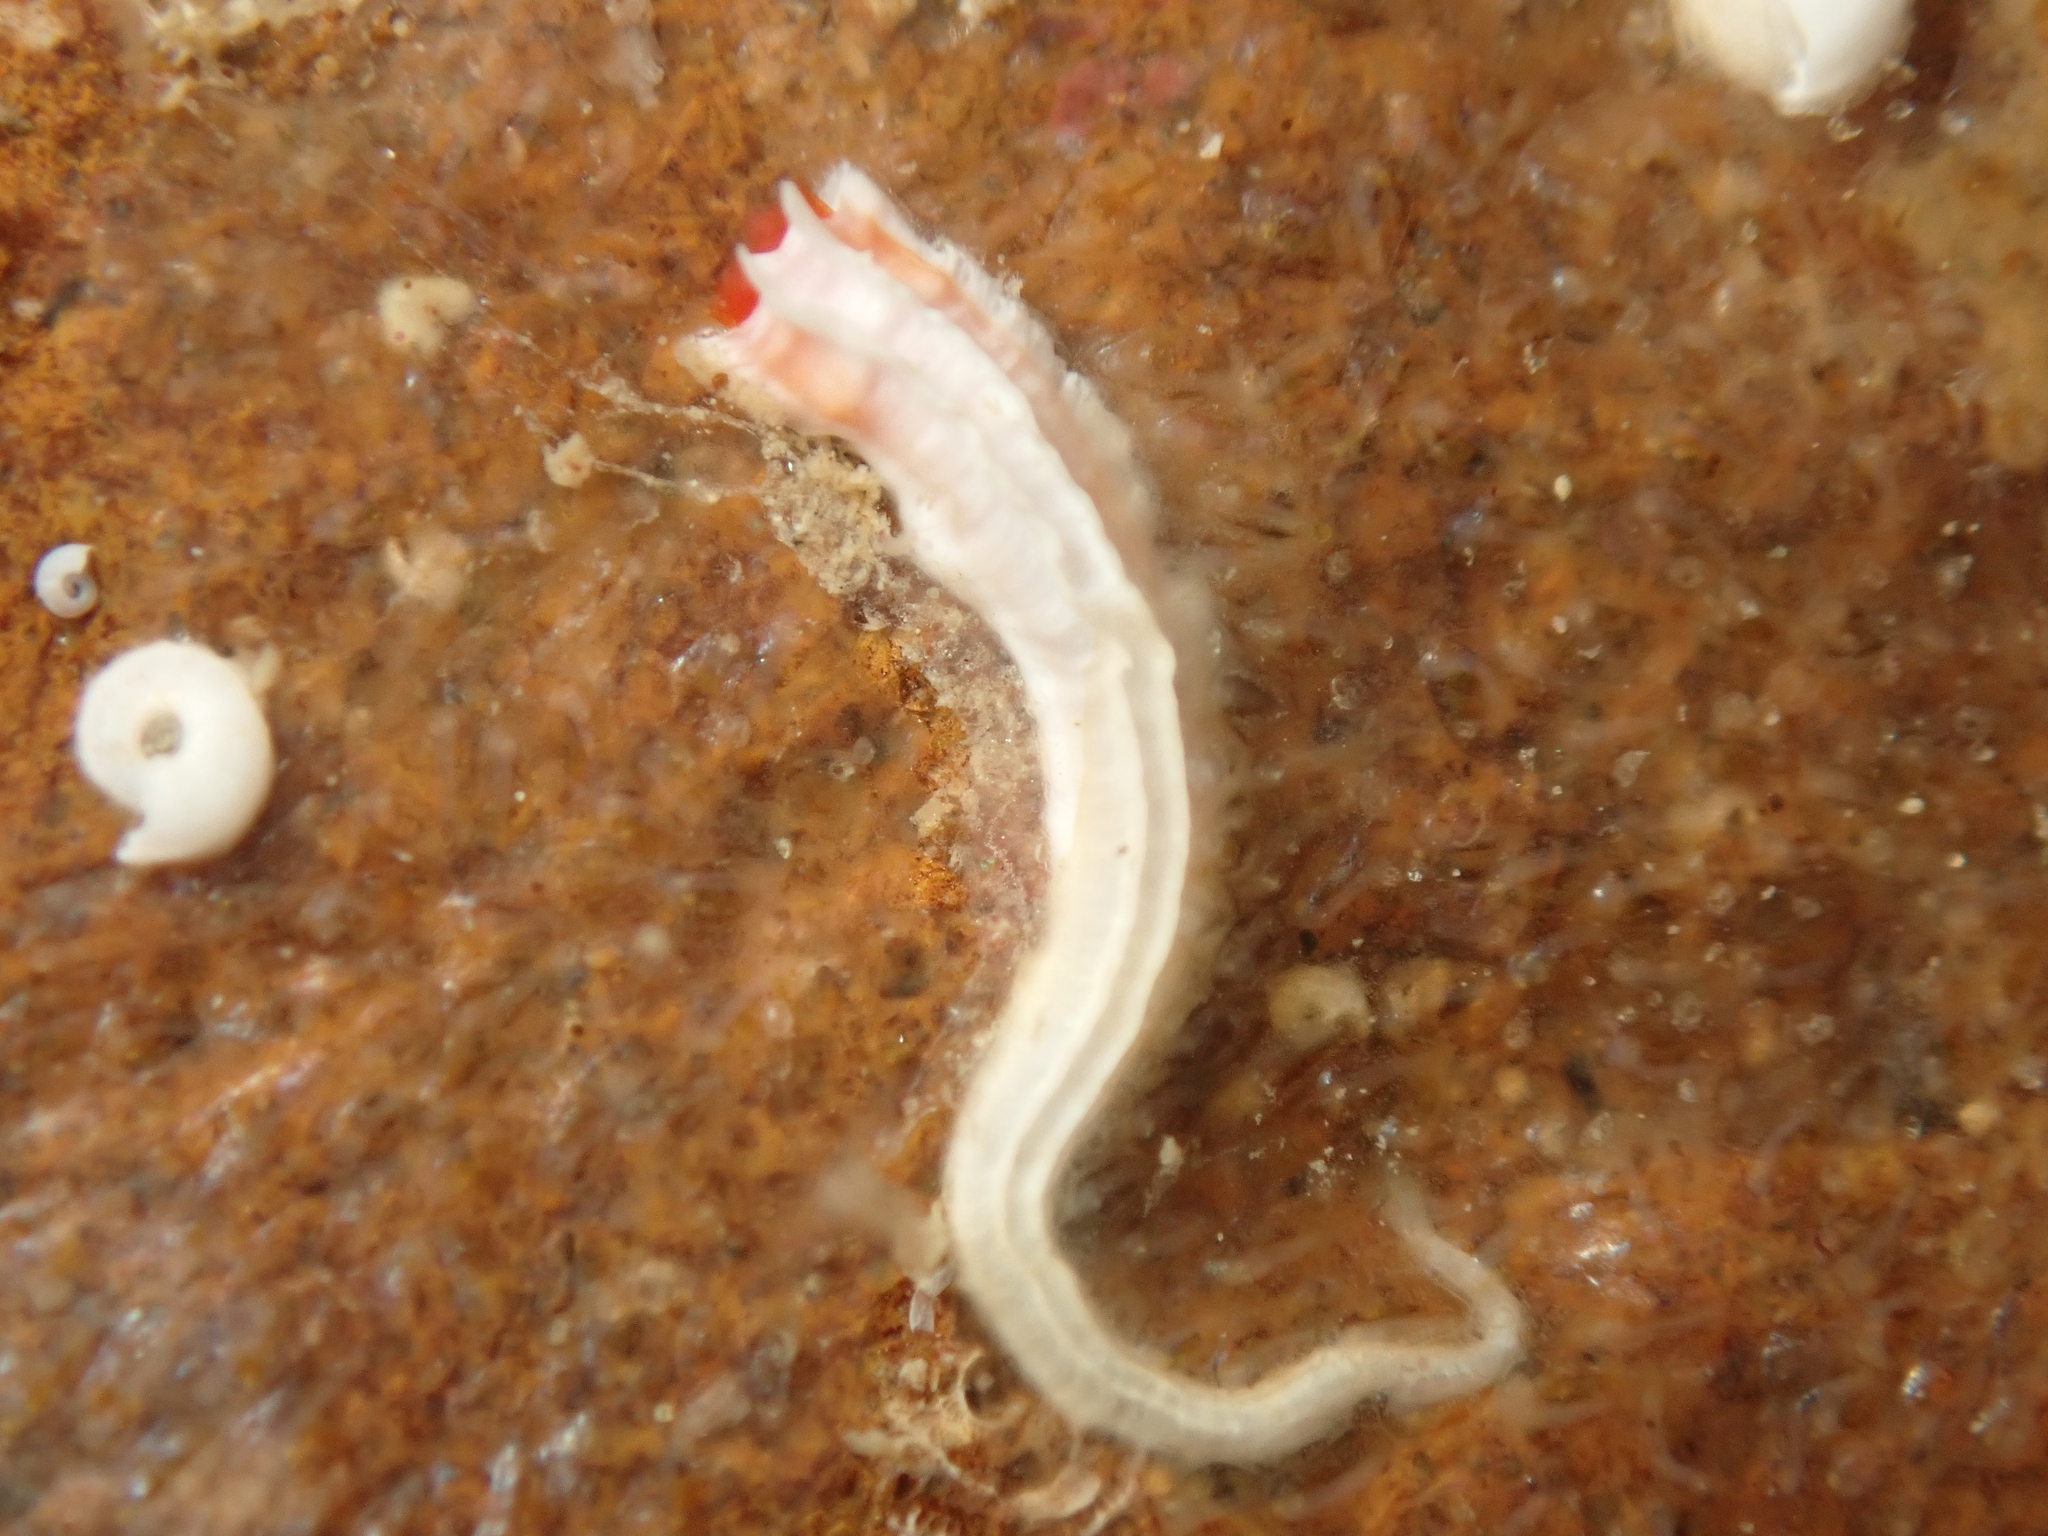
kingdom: Animalia
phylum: Annelida
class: Polychaeta
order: Sabellida
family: Serpulidae
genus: Galeolaria
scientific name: Galeolaria hystrix
